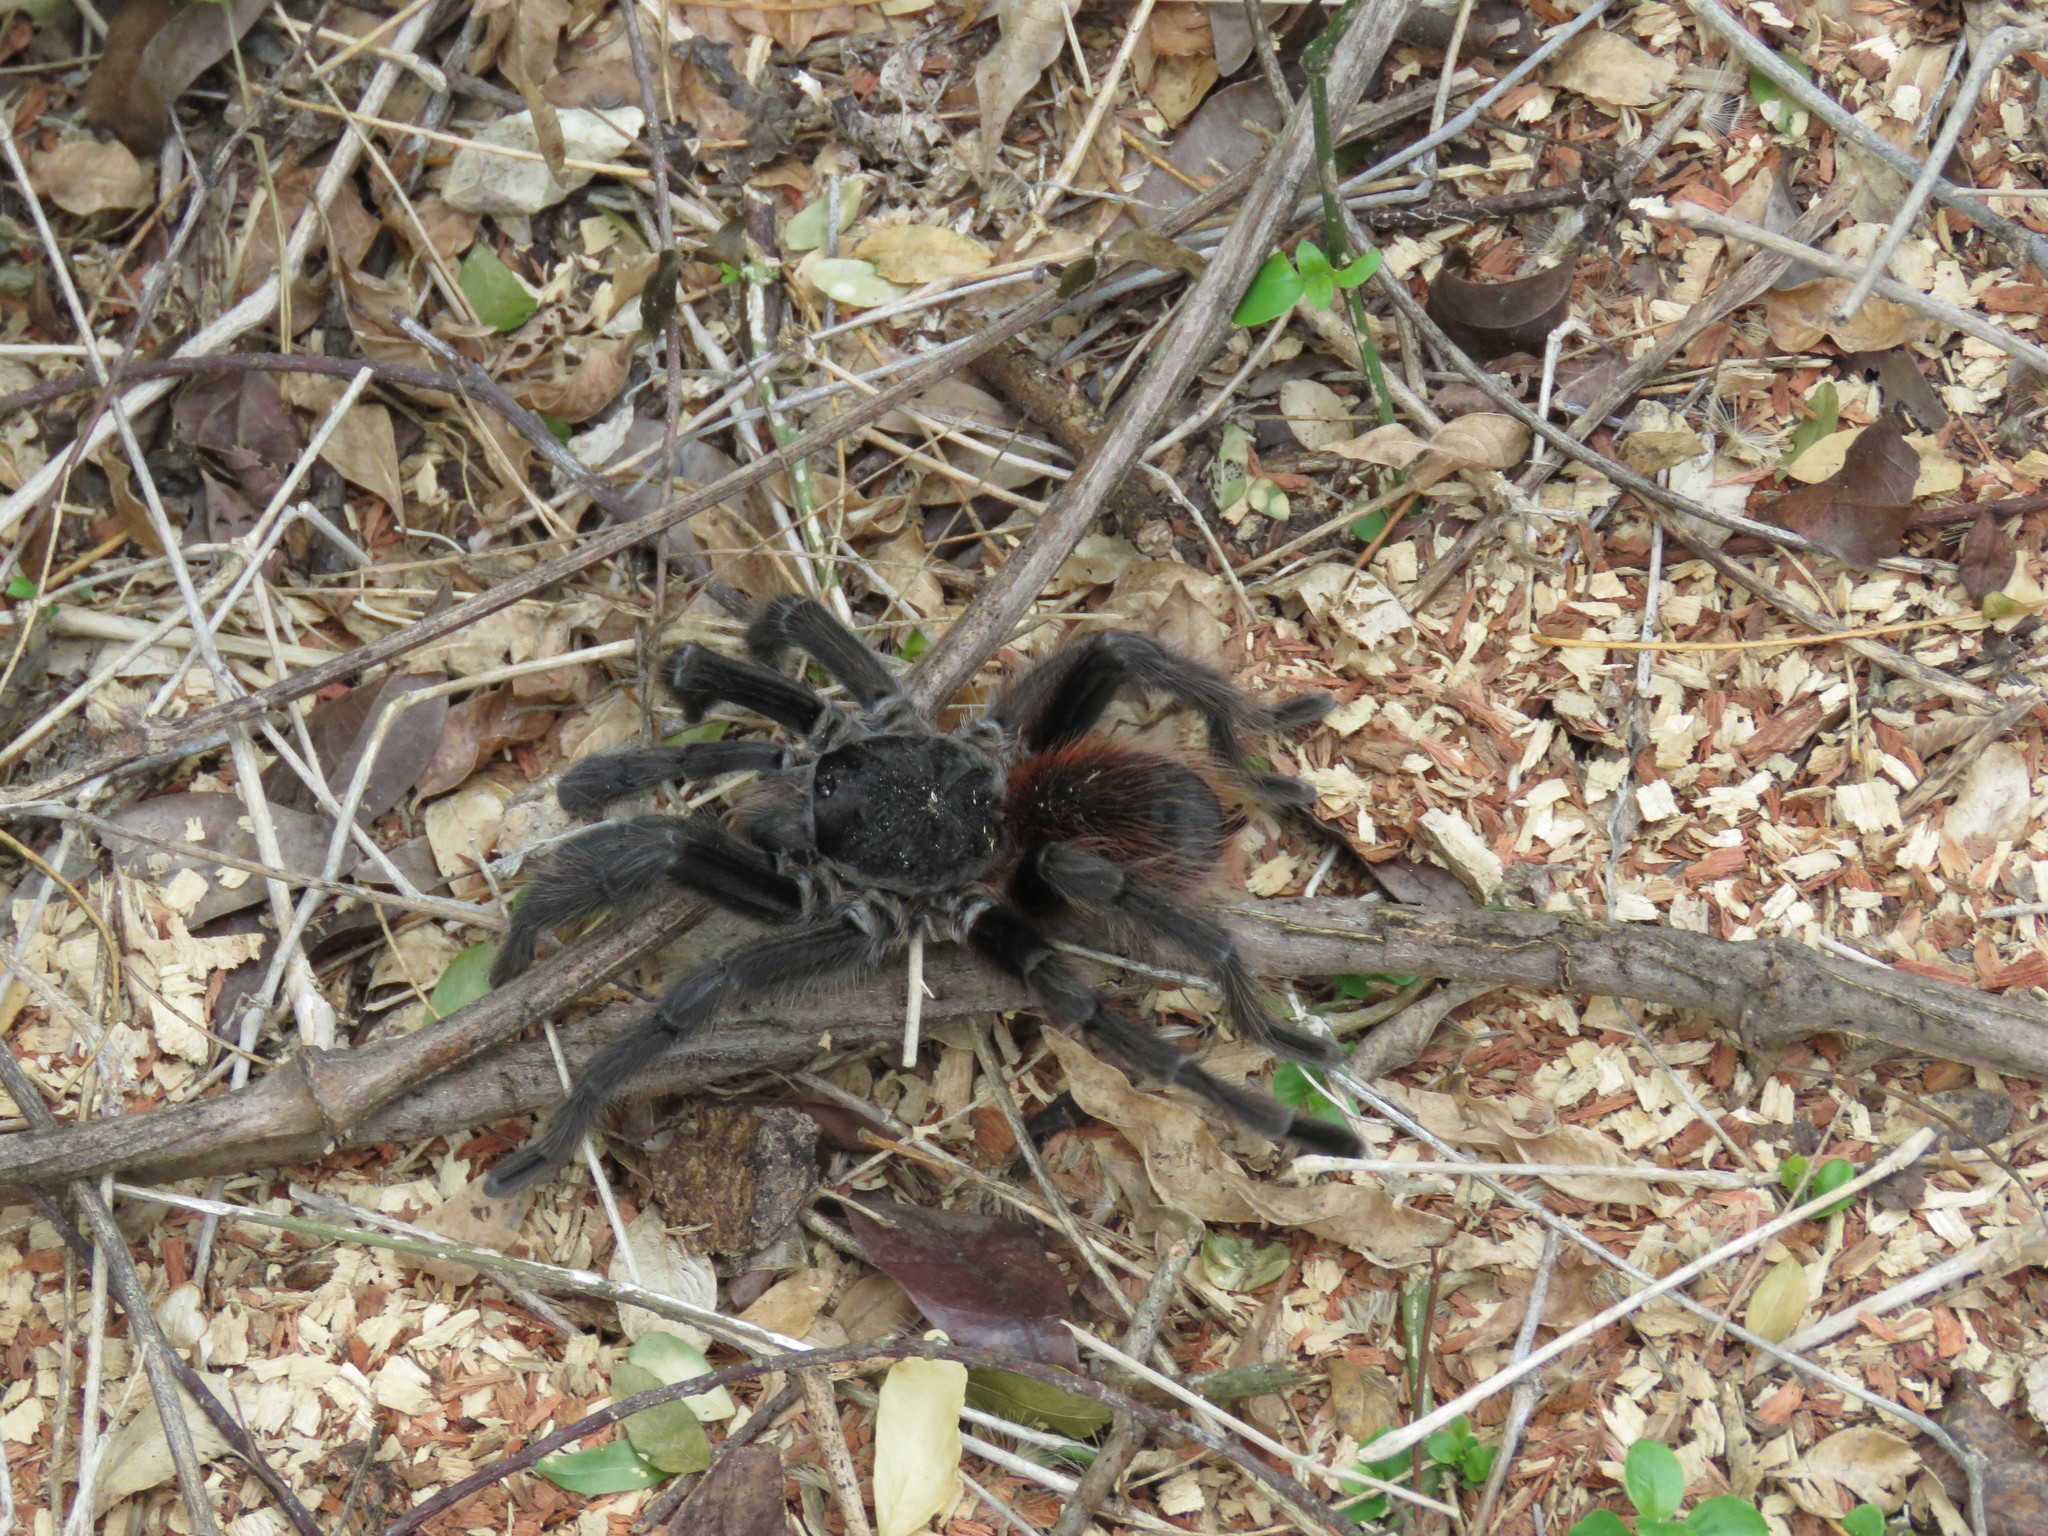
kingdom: Animalia
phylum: Arthropoda
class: Arachnida
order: Araneae
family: Theraphosidae
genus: Acanthoscurria
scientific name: Acanthoscurria chacoana
